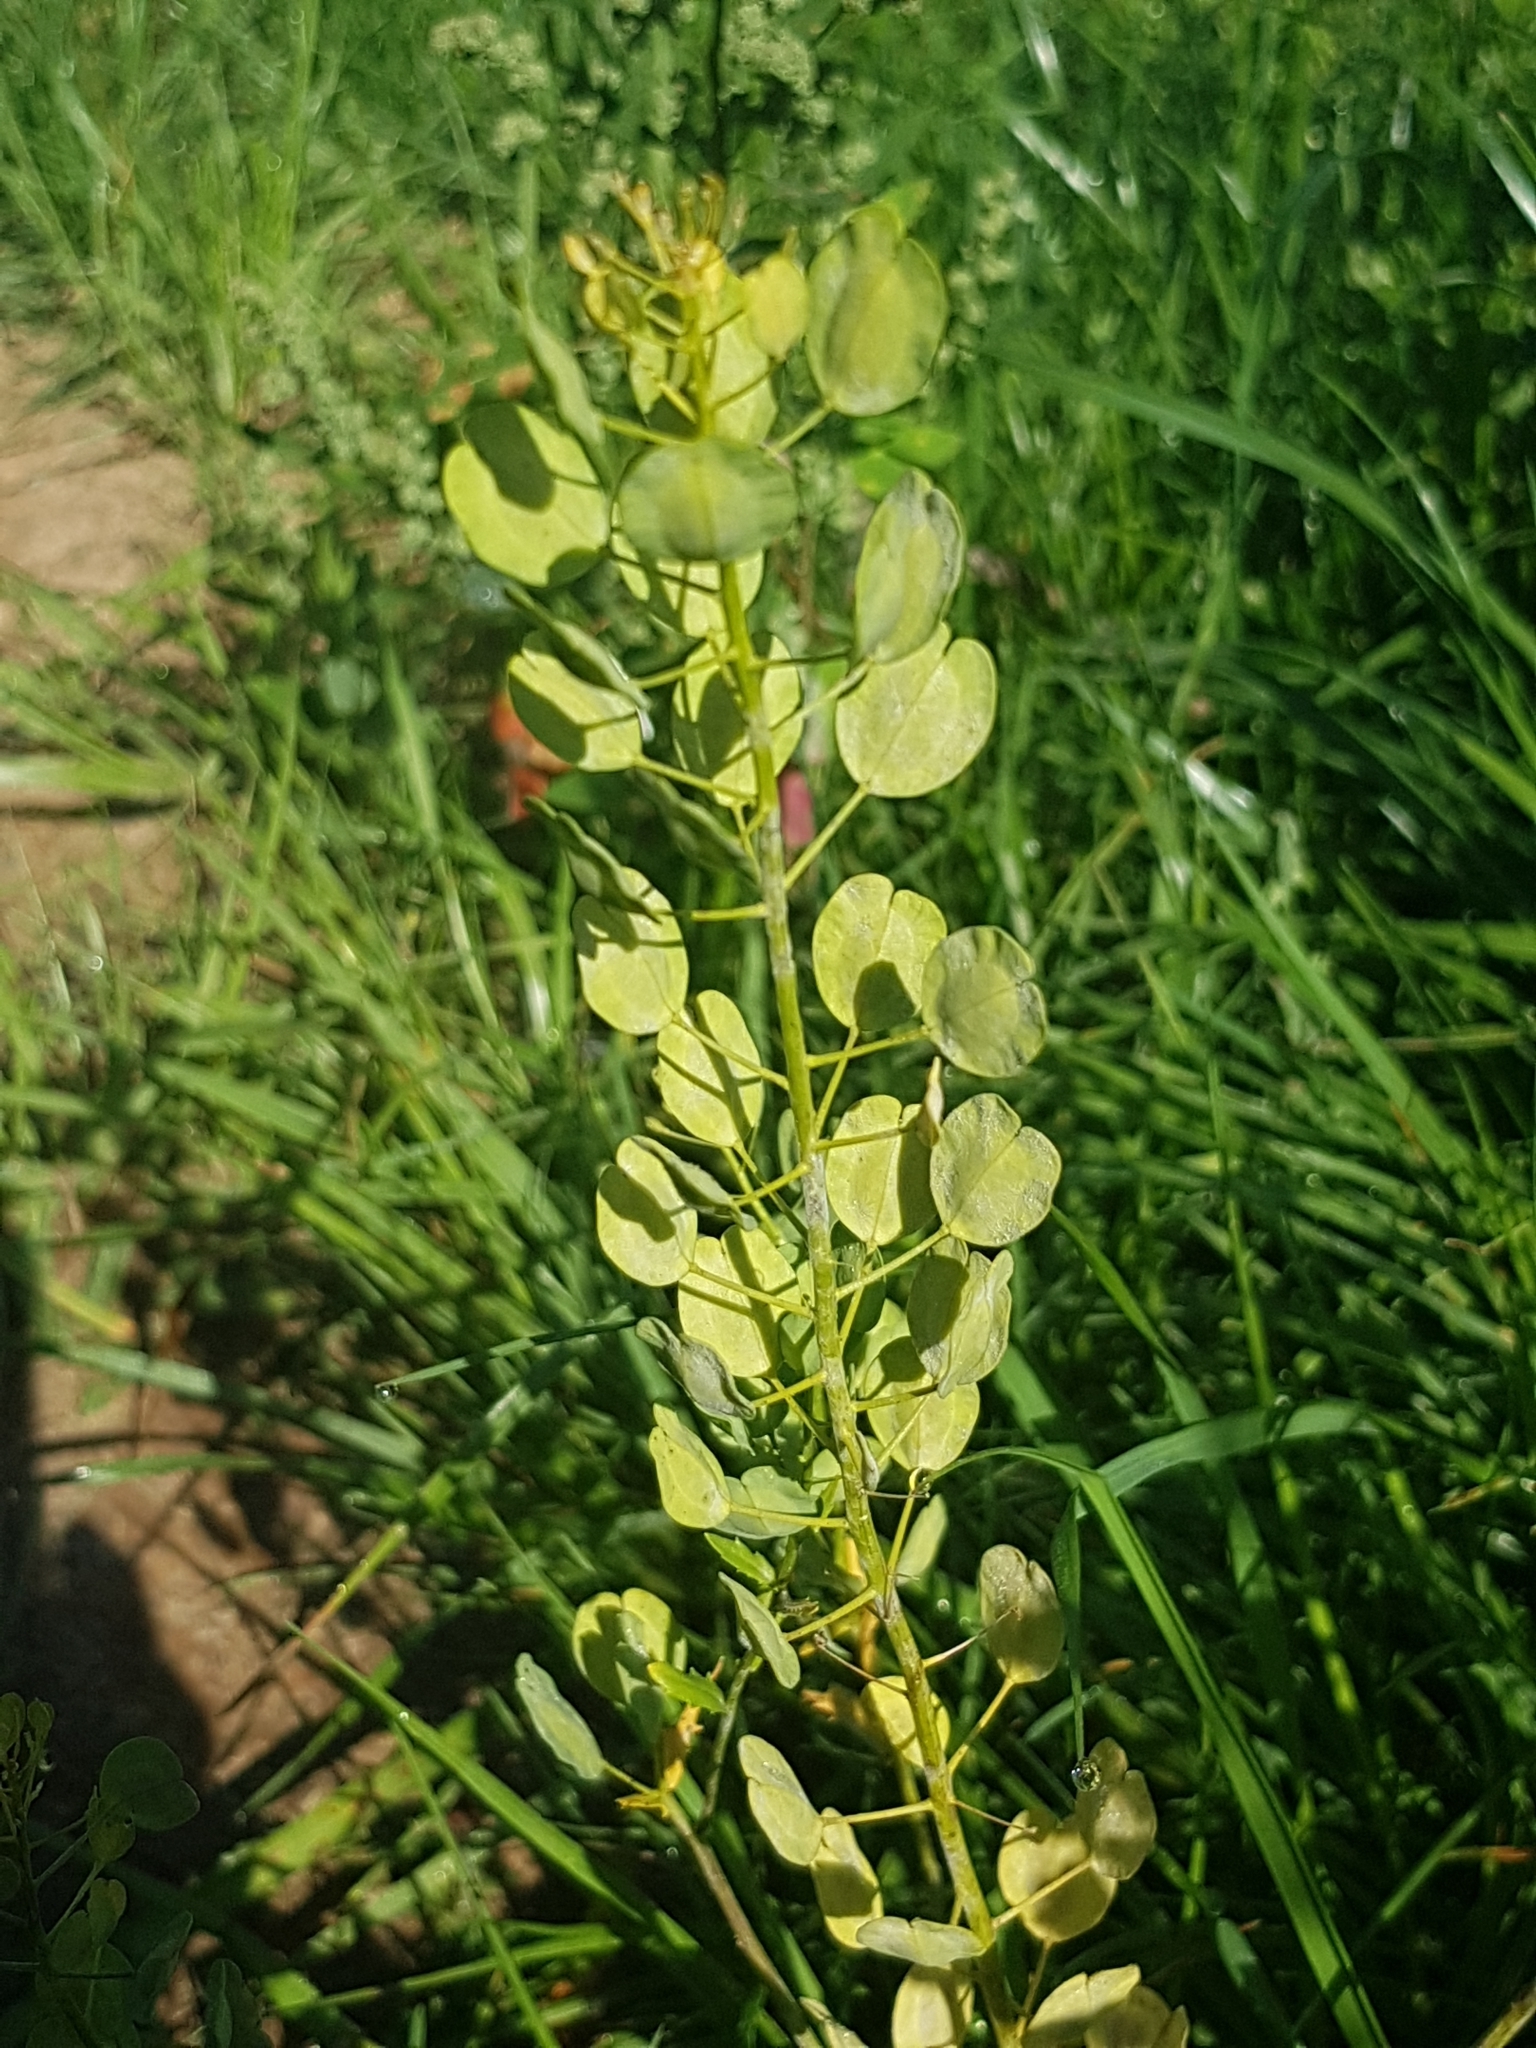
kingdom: Plantae
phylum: Tracheophyta
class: Magnoliopsida
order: Brassicales
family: Brassicaceae
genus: Thlaspi
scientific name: Thlaspi arvense
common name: Field pennycress
